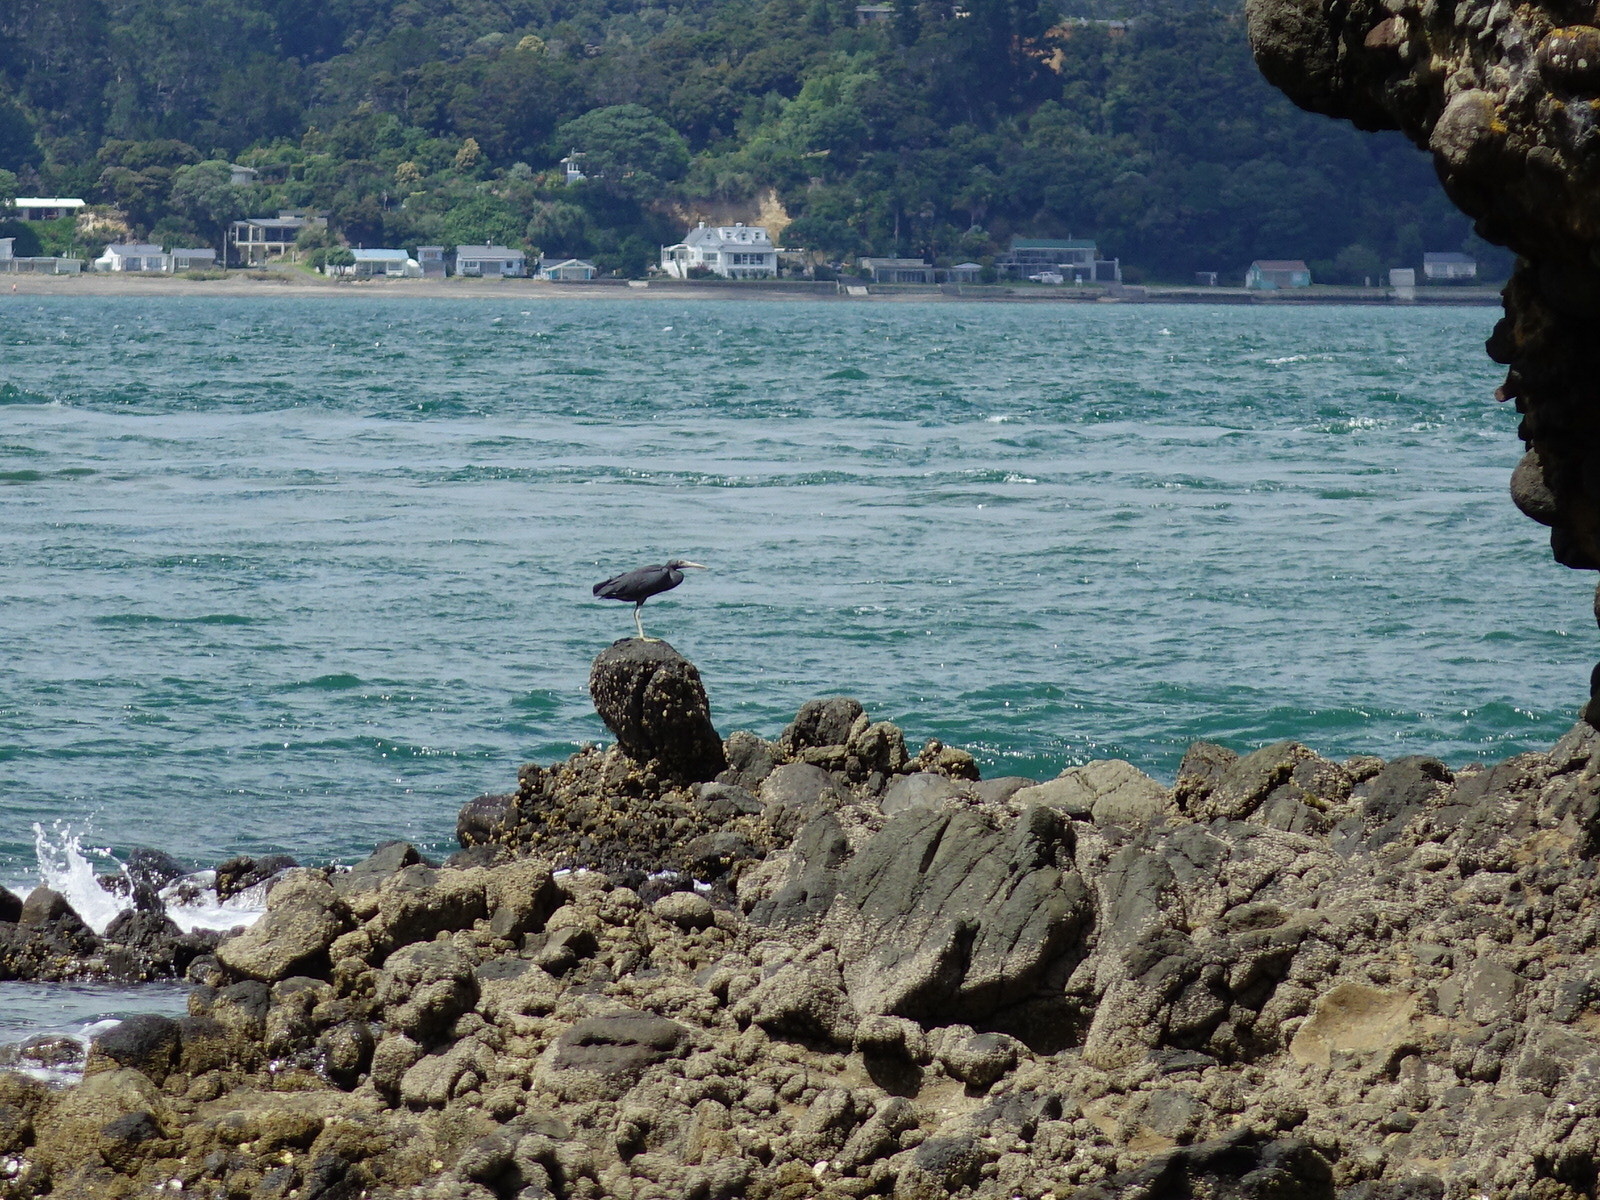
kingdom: Animalia
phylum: Chordata
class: Aves
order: Pelecaniformes
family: Ardeidae
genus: Egretta
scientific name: Egretta sacra
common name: Pacific reef heron
